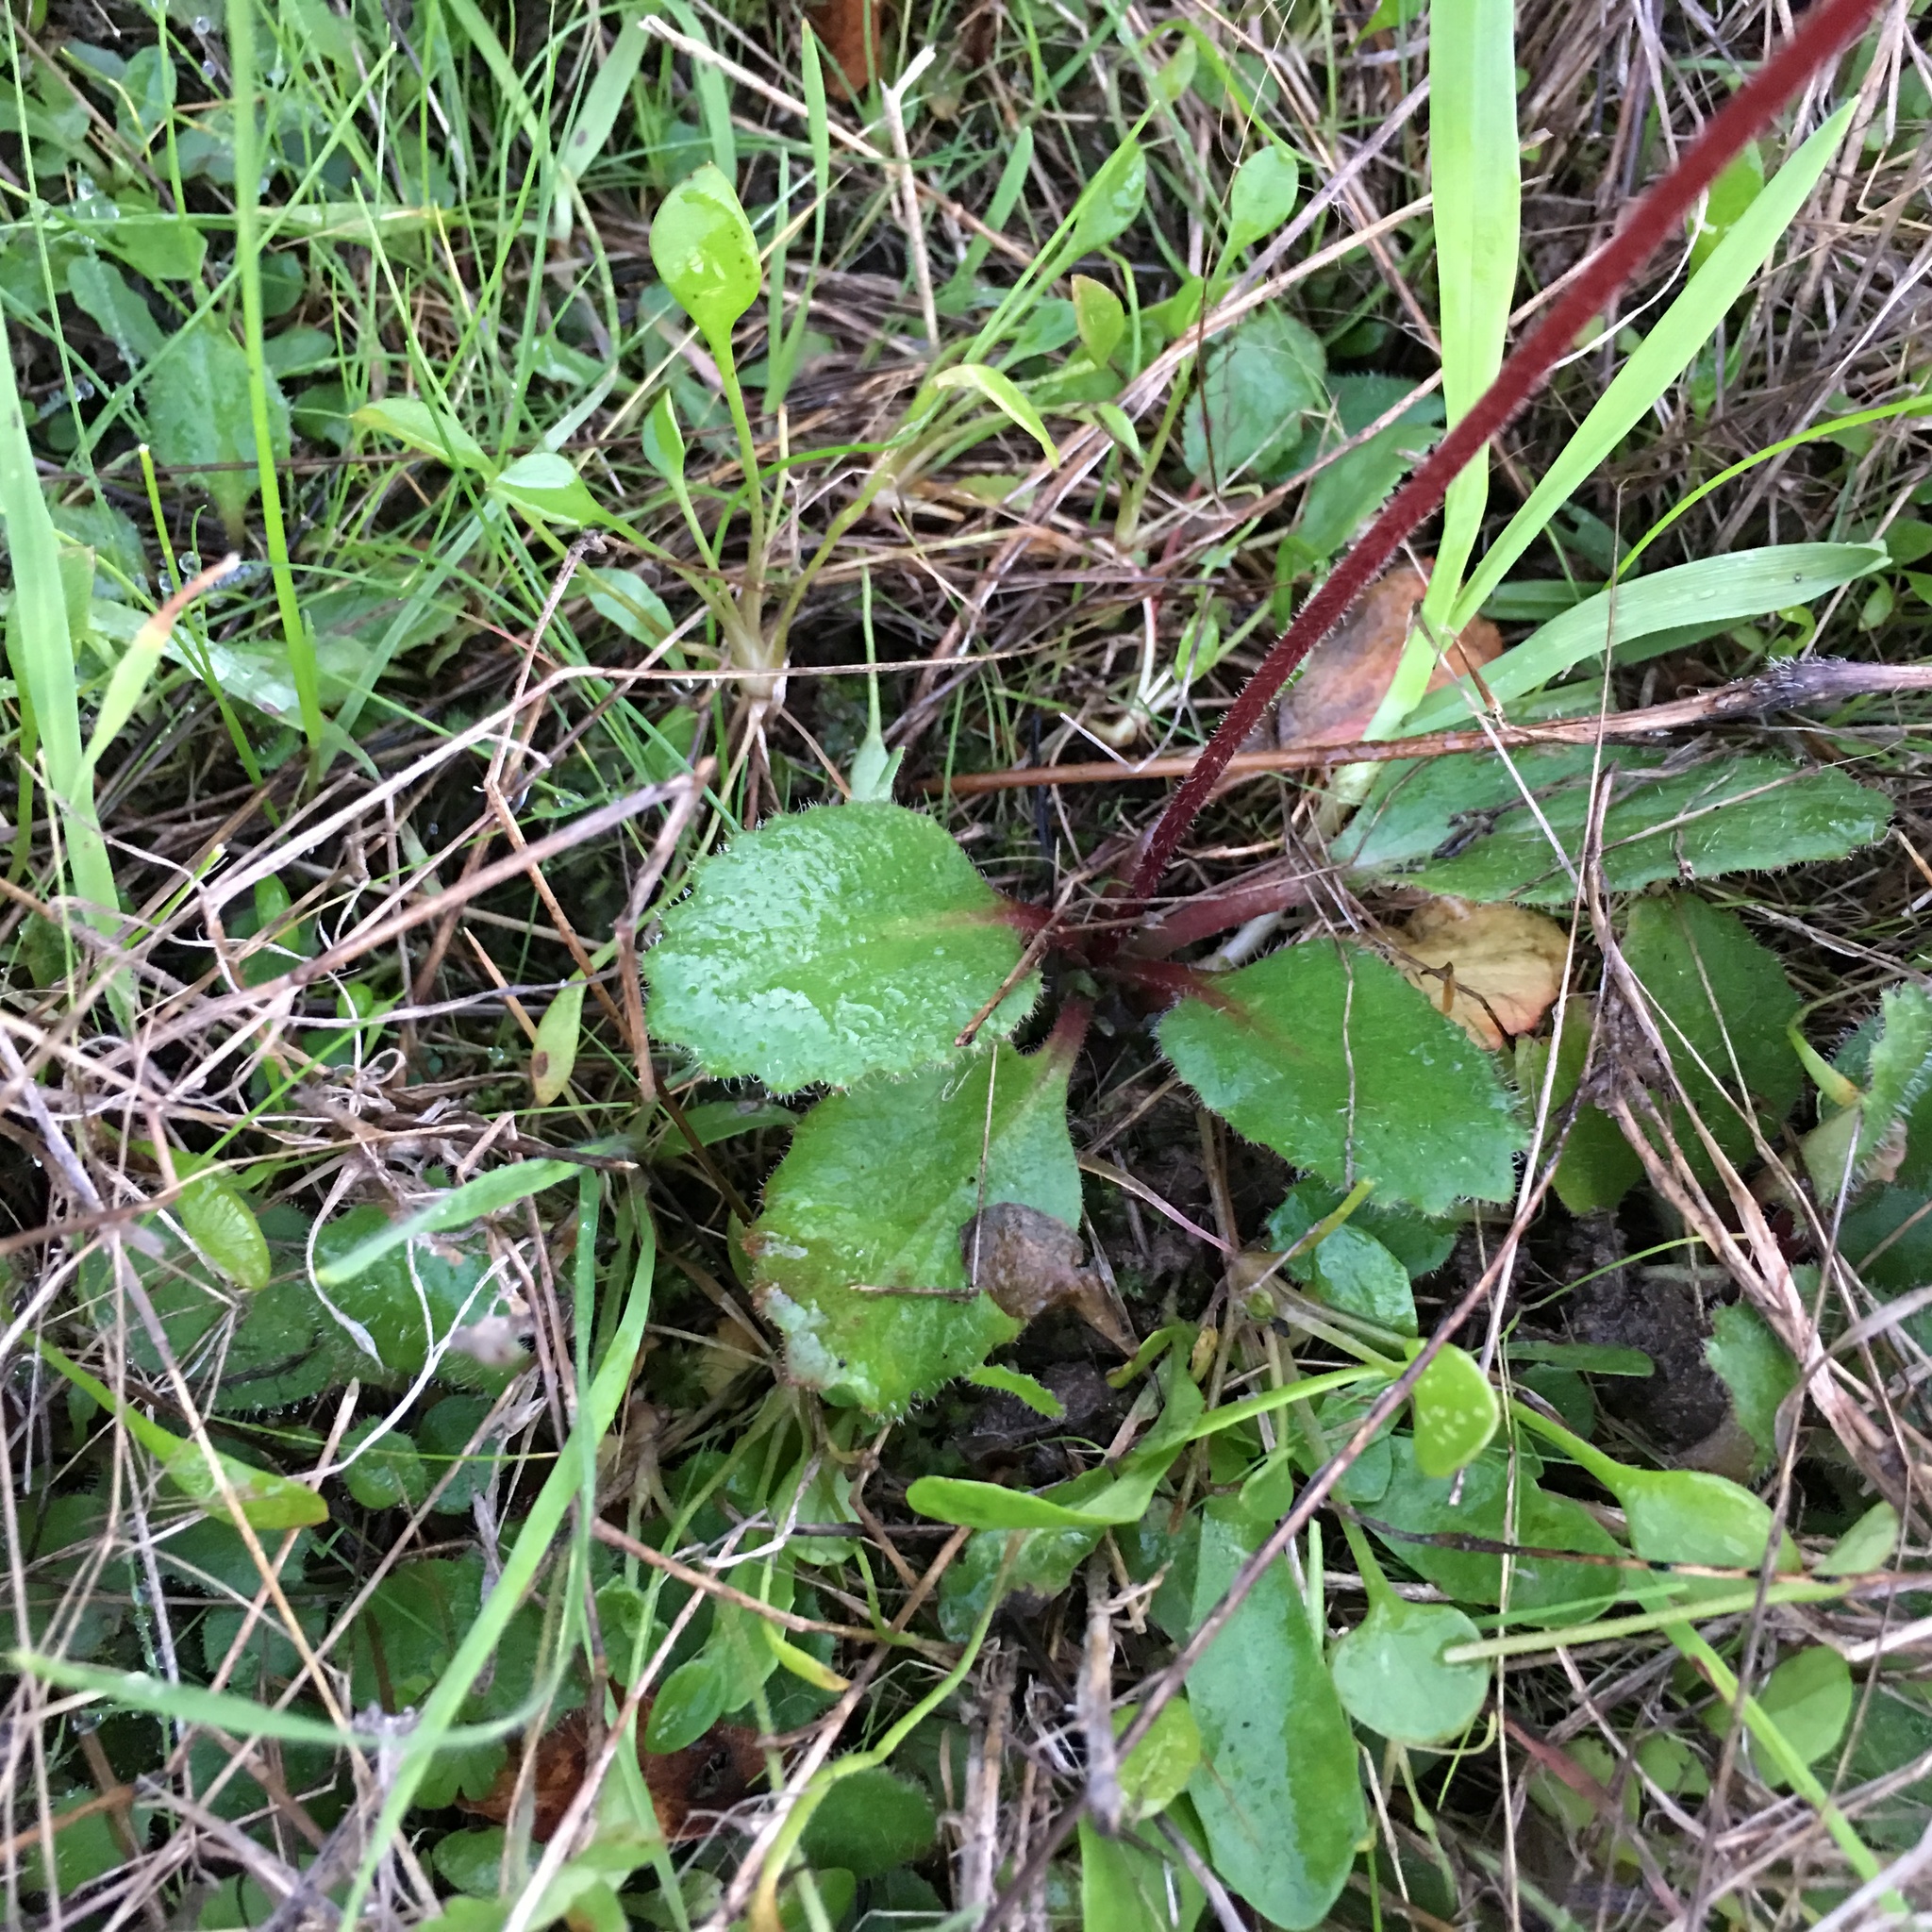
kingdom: Plantae
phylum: Tracheophyta
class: Magnoliopsida
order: Saxifragales
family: Saxifragaceae
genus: Micranthes
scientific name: Micranthes californica
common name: California saxifrage
